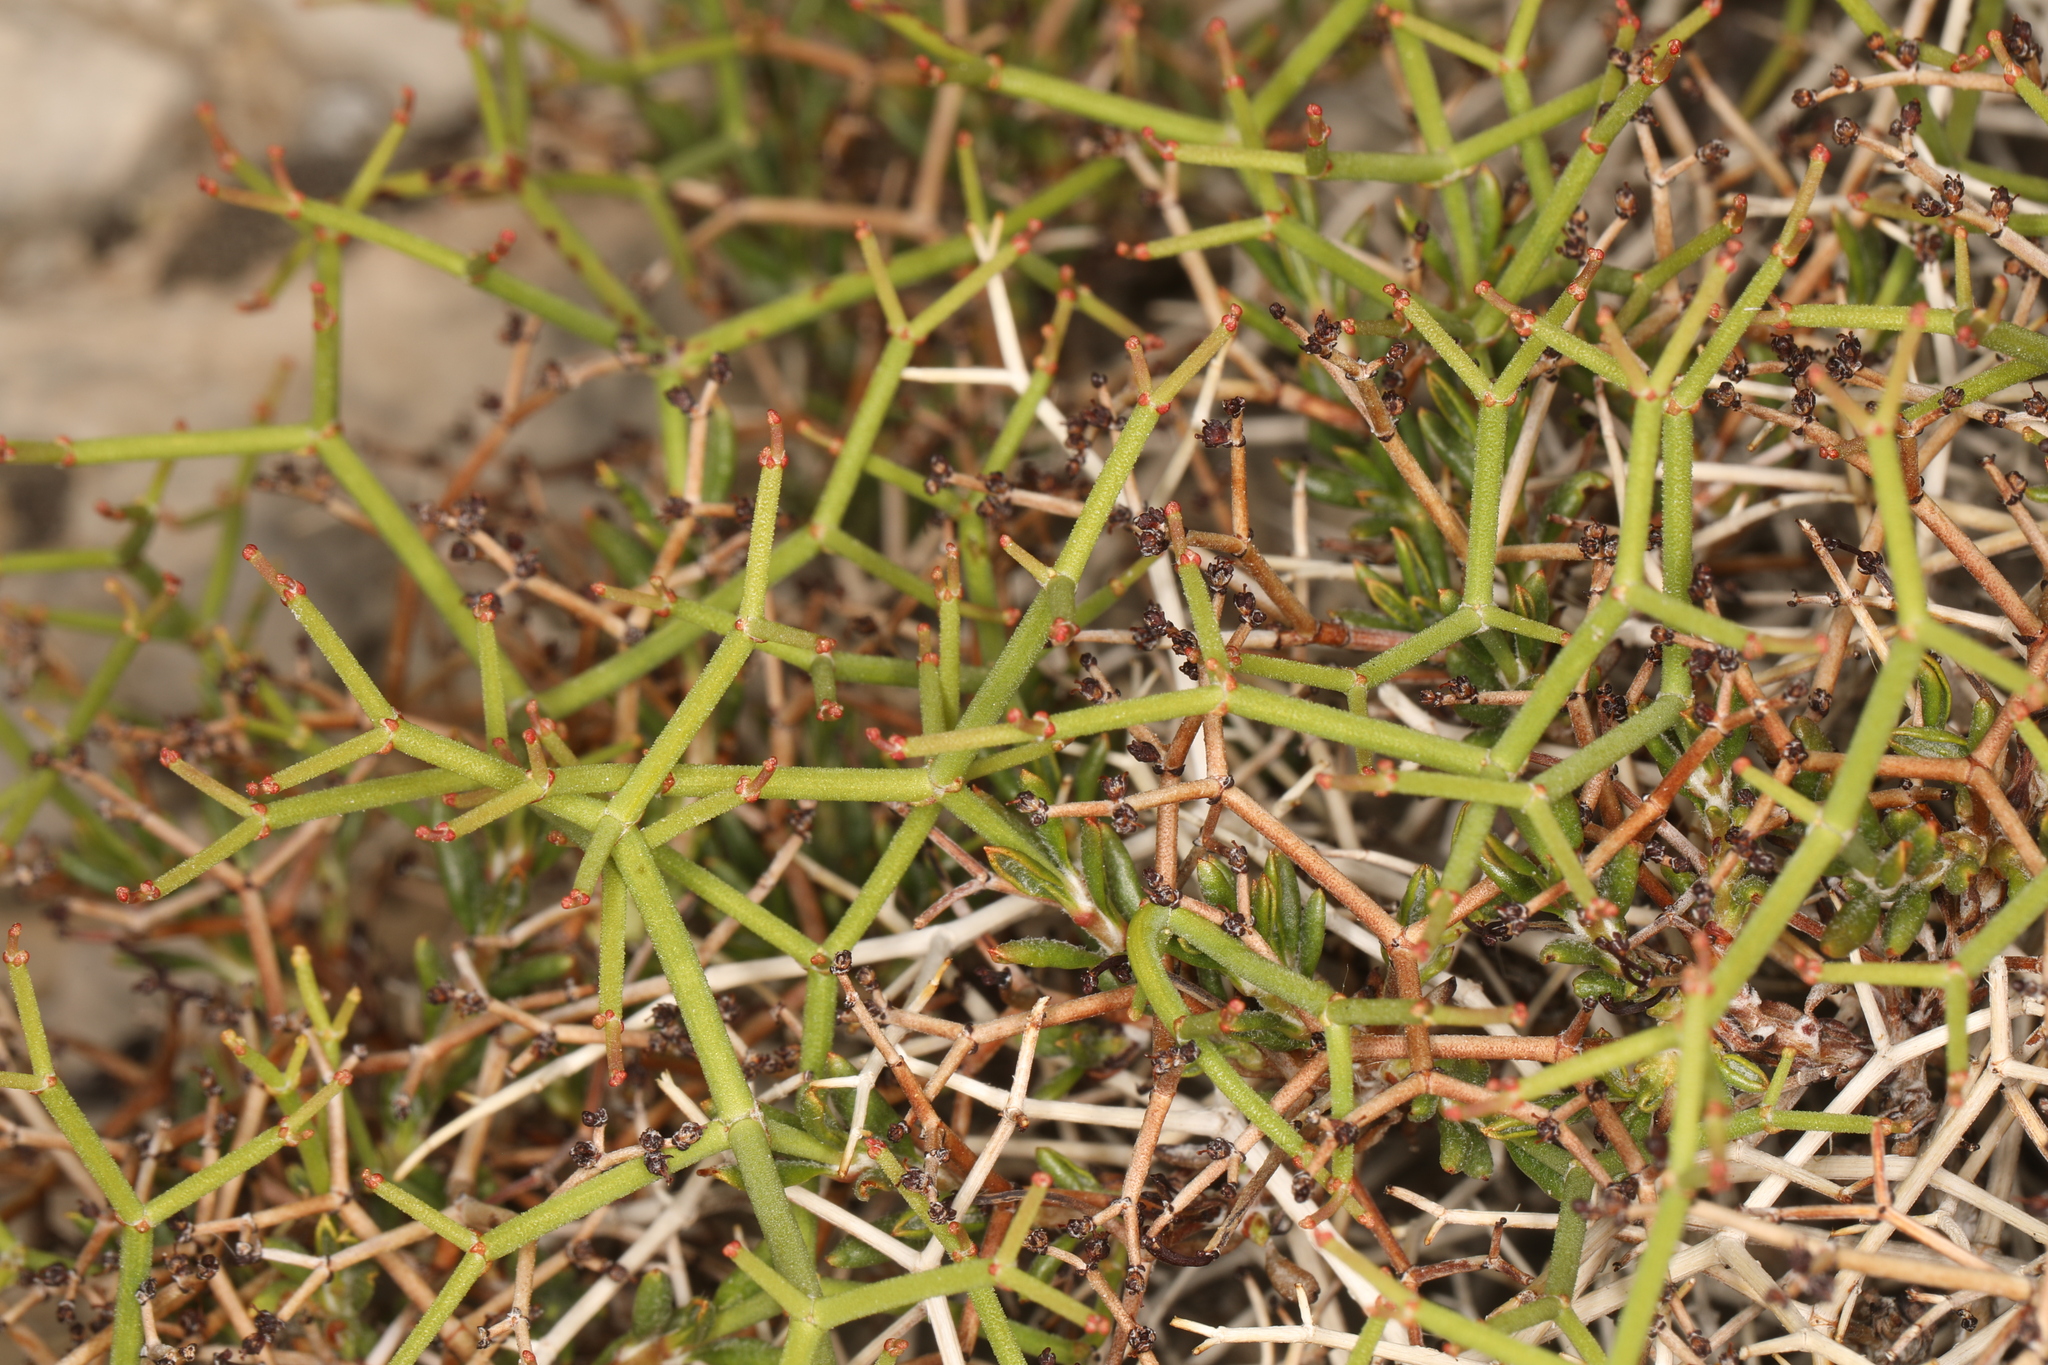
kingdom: Plantae
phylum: Tracheophyta
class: Magnoliopsida
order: Caryophyllales
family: Polygonaceae
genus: Eriogonum
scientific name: Eriogonum heermannii
